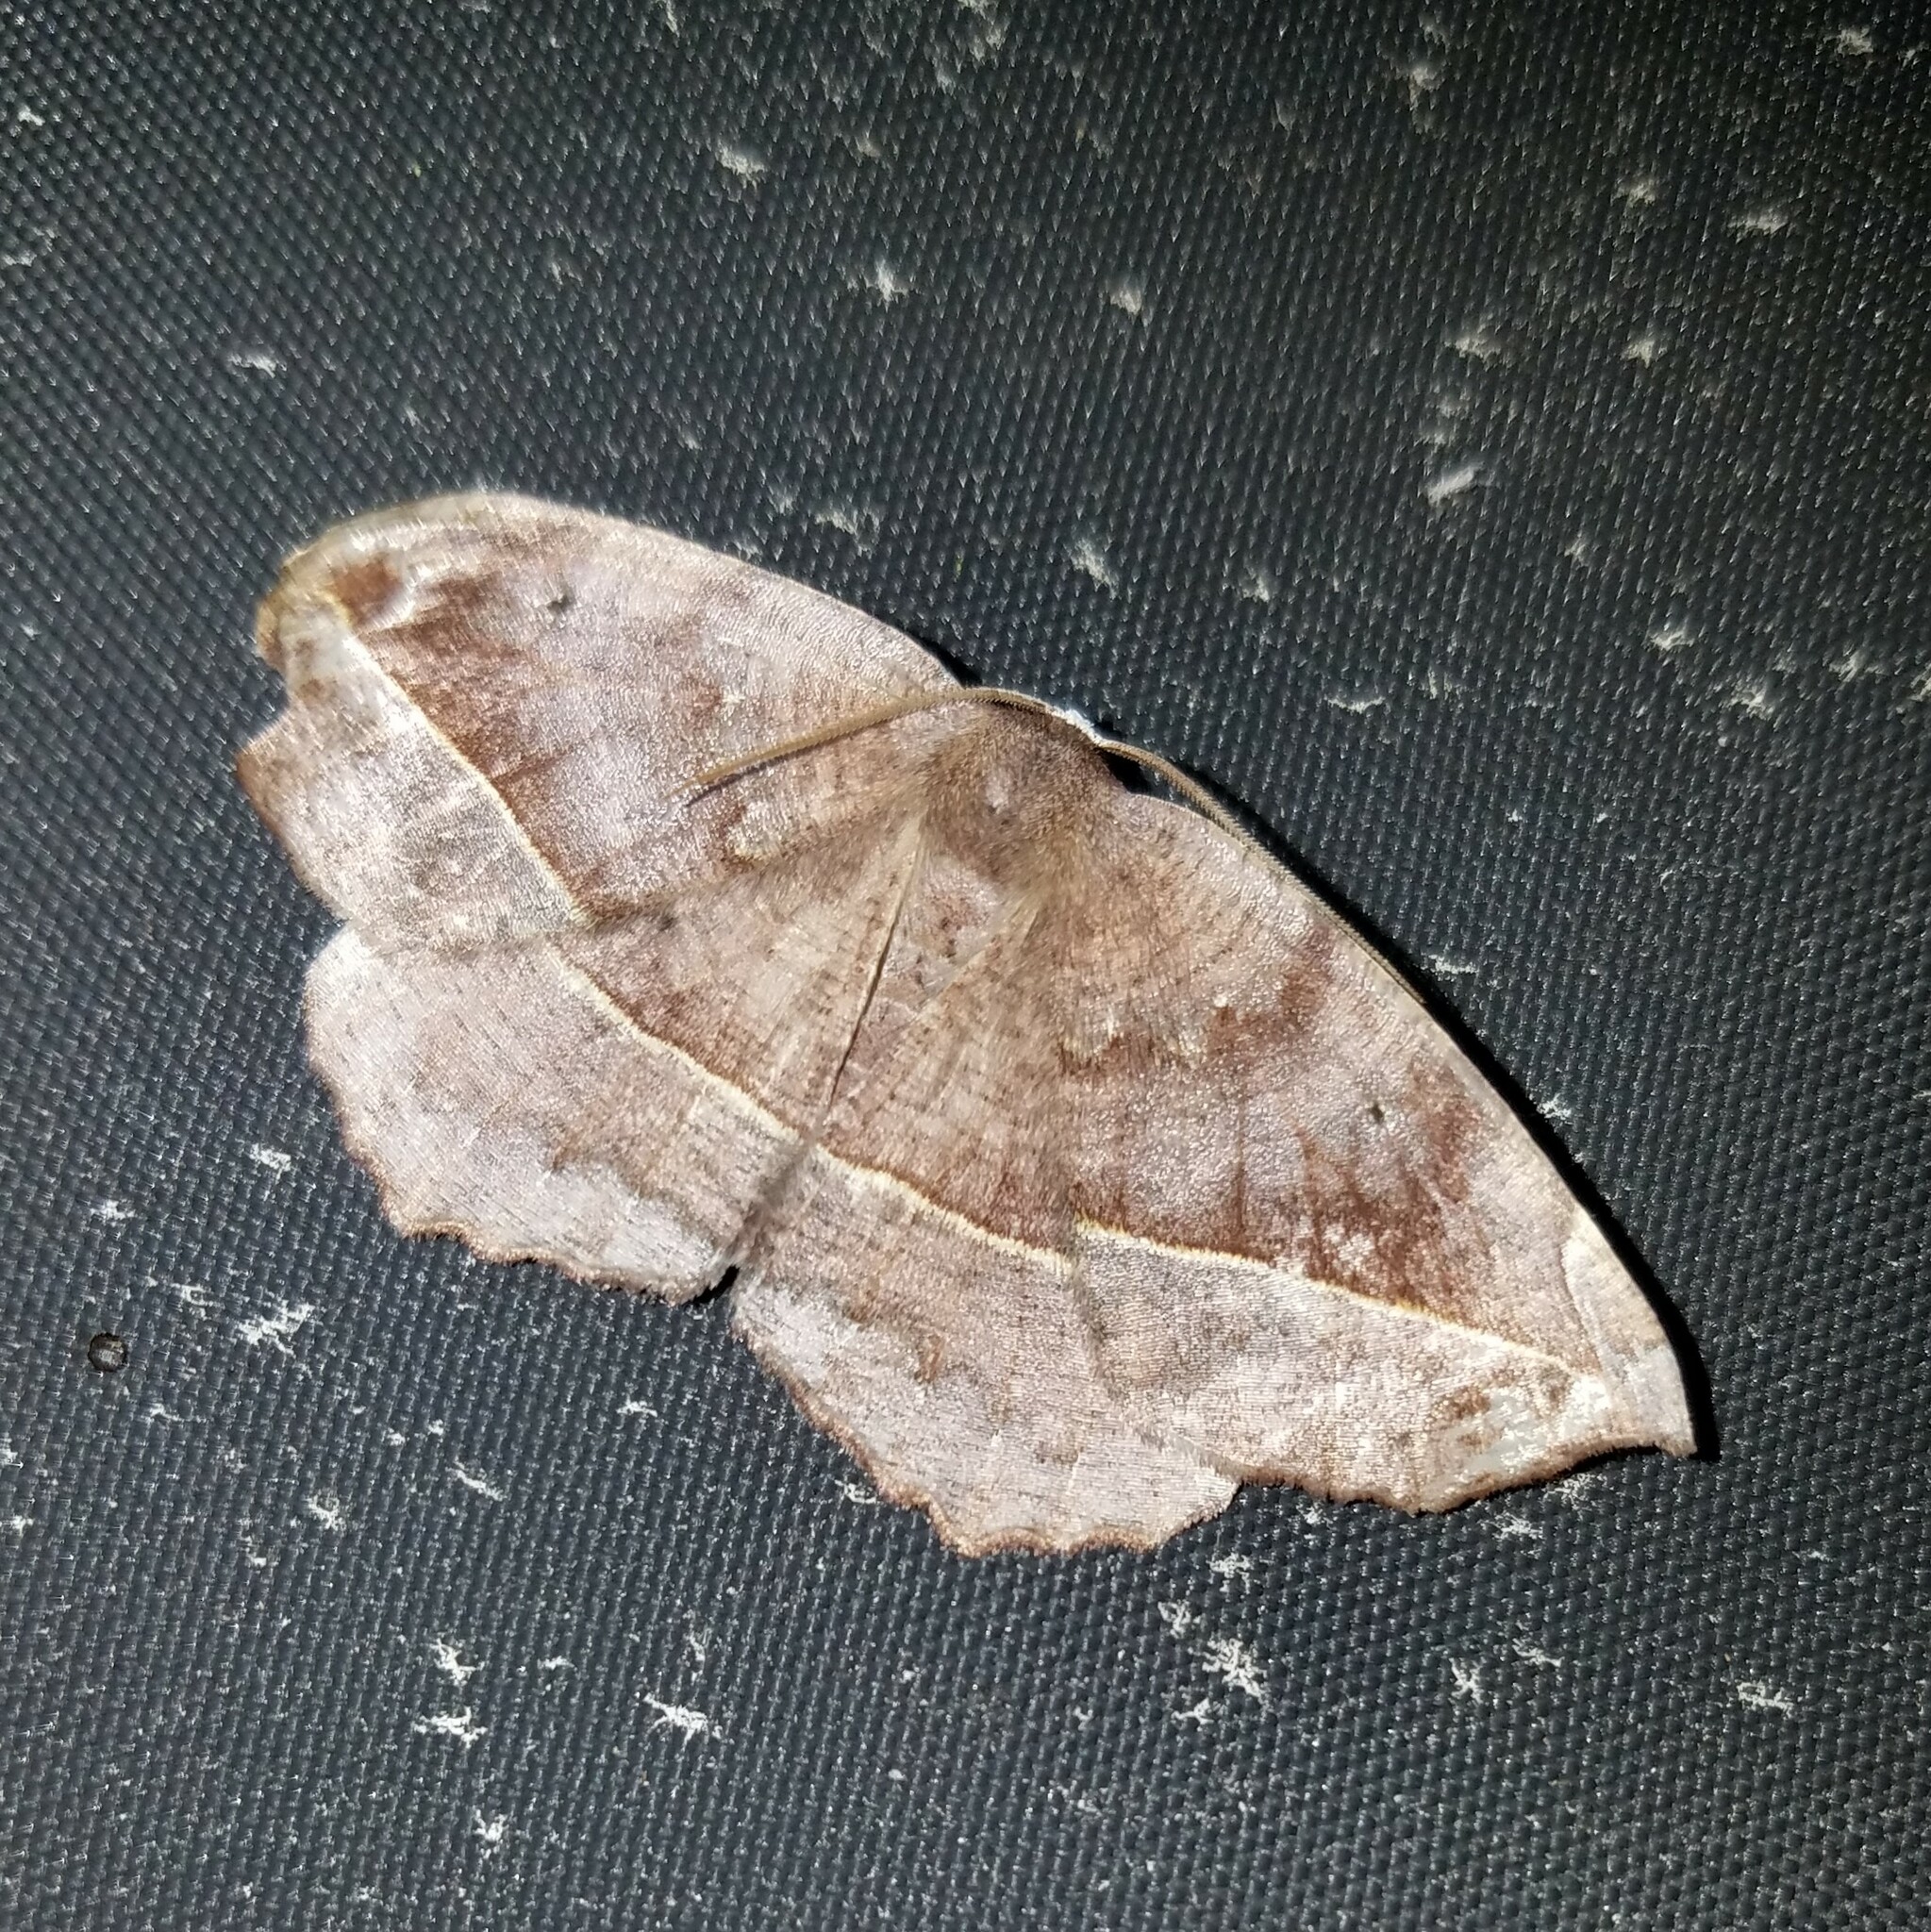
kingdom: Animalia
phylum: Arthropoda
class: Insecta
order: Lepidoptera
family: Geometridae
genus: Eutrapela
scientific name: Eutrapela clemataria
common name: Curved-toothed geometer
